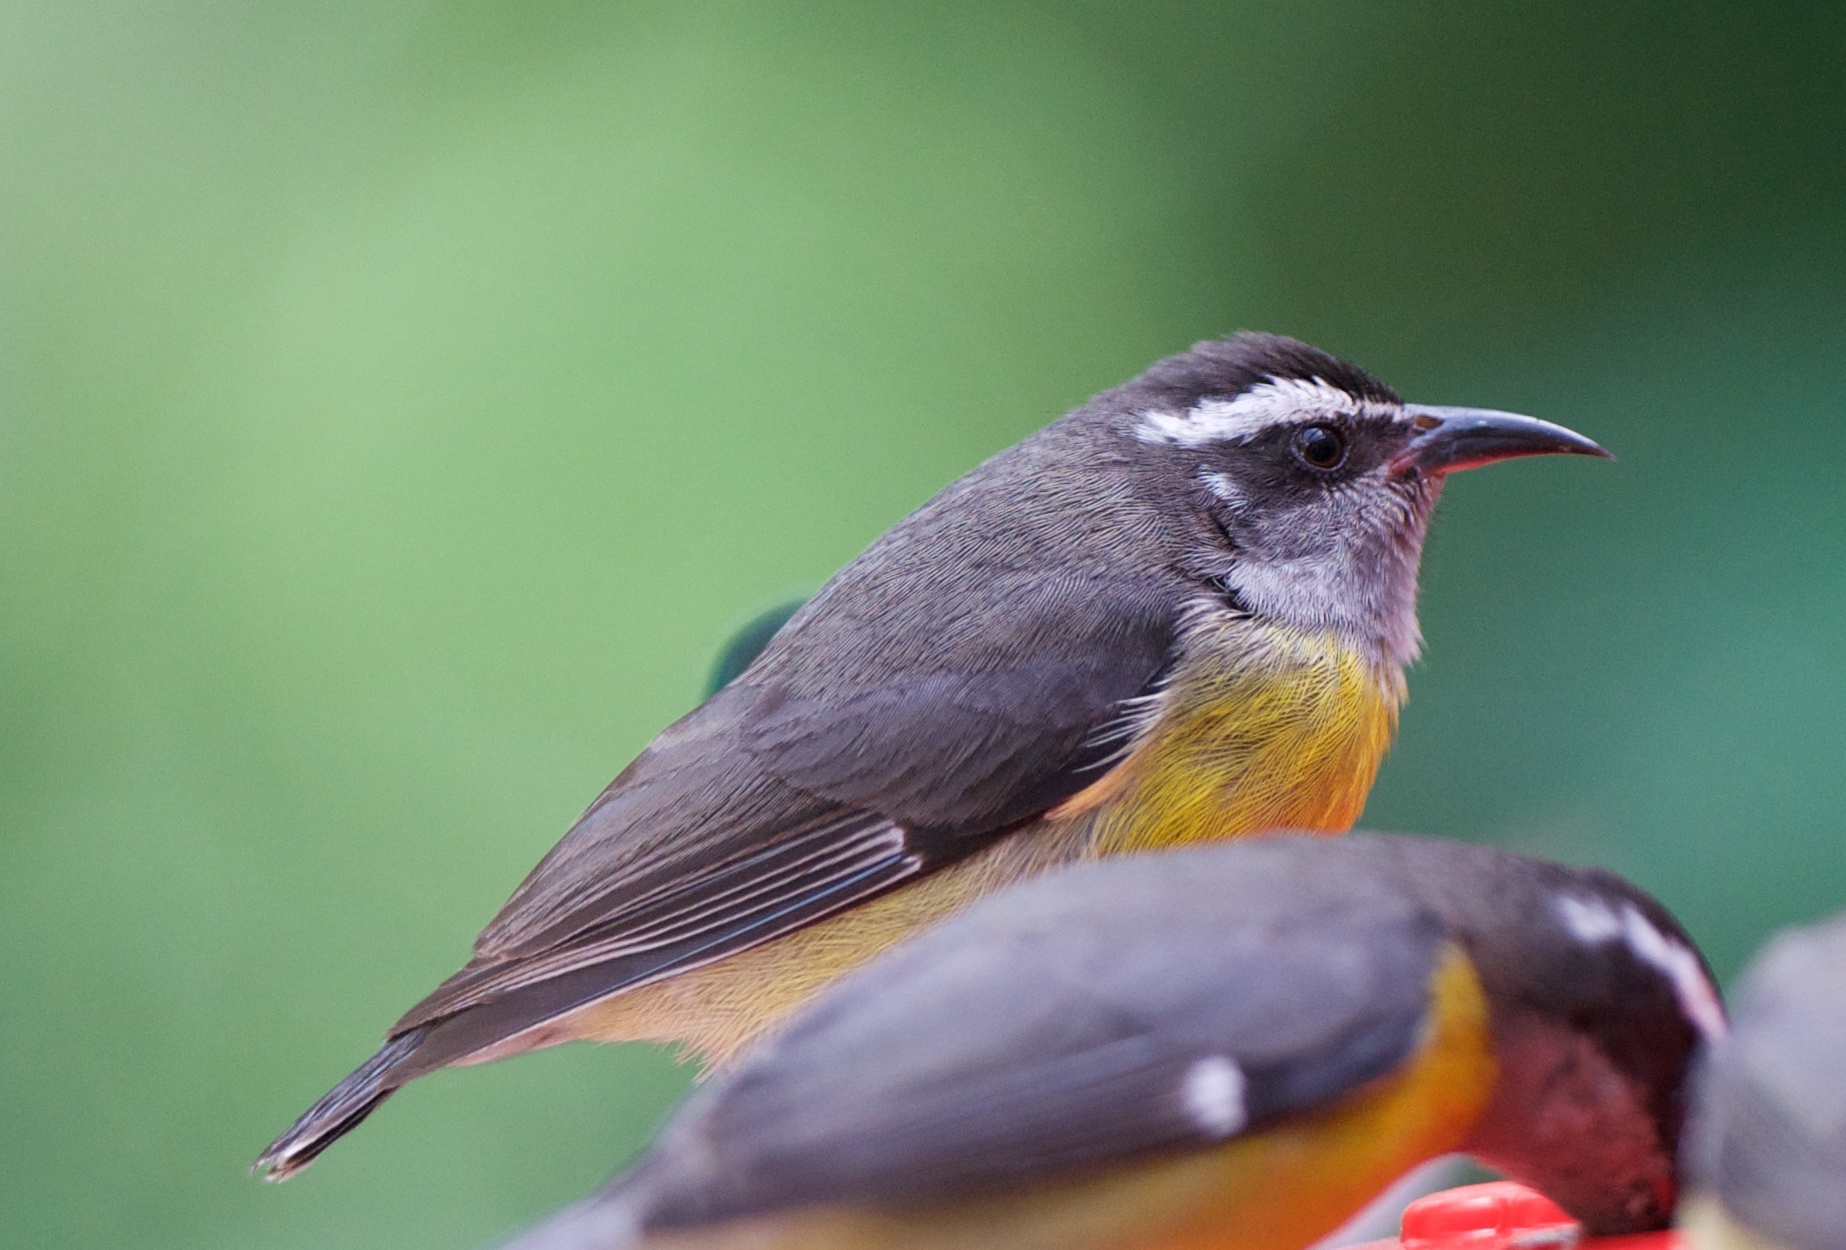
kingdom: Animalia
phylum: Chordata
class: Aves
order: Passeriformes
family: Thraupidae
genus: Coereba
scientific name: Coereba flaveola
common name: Bananaquit
